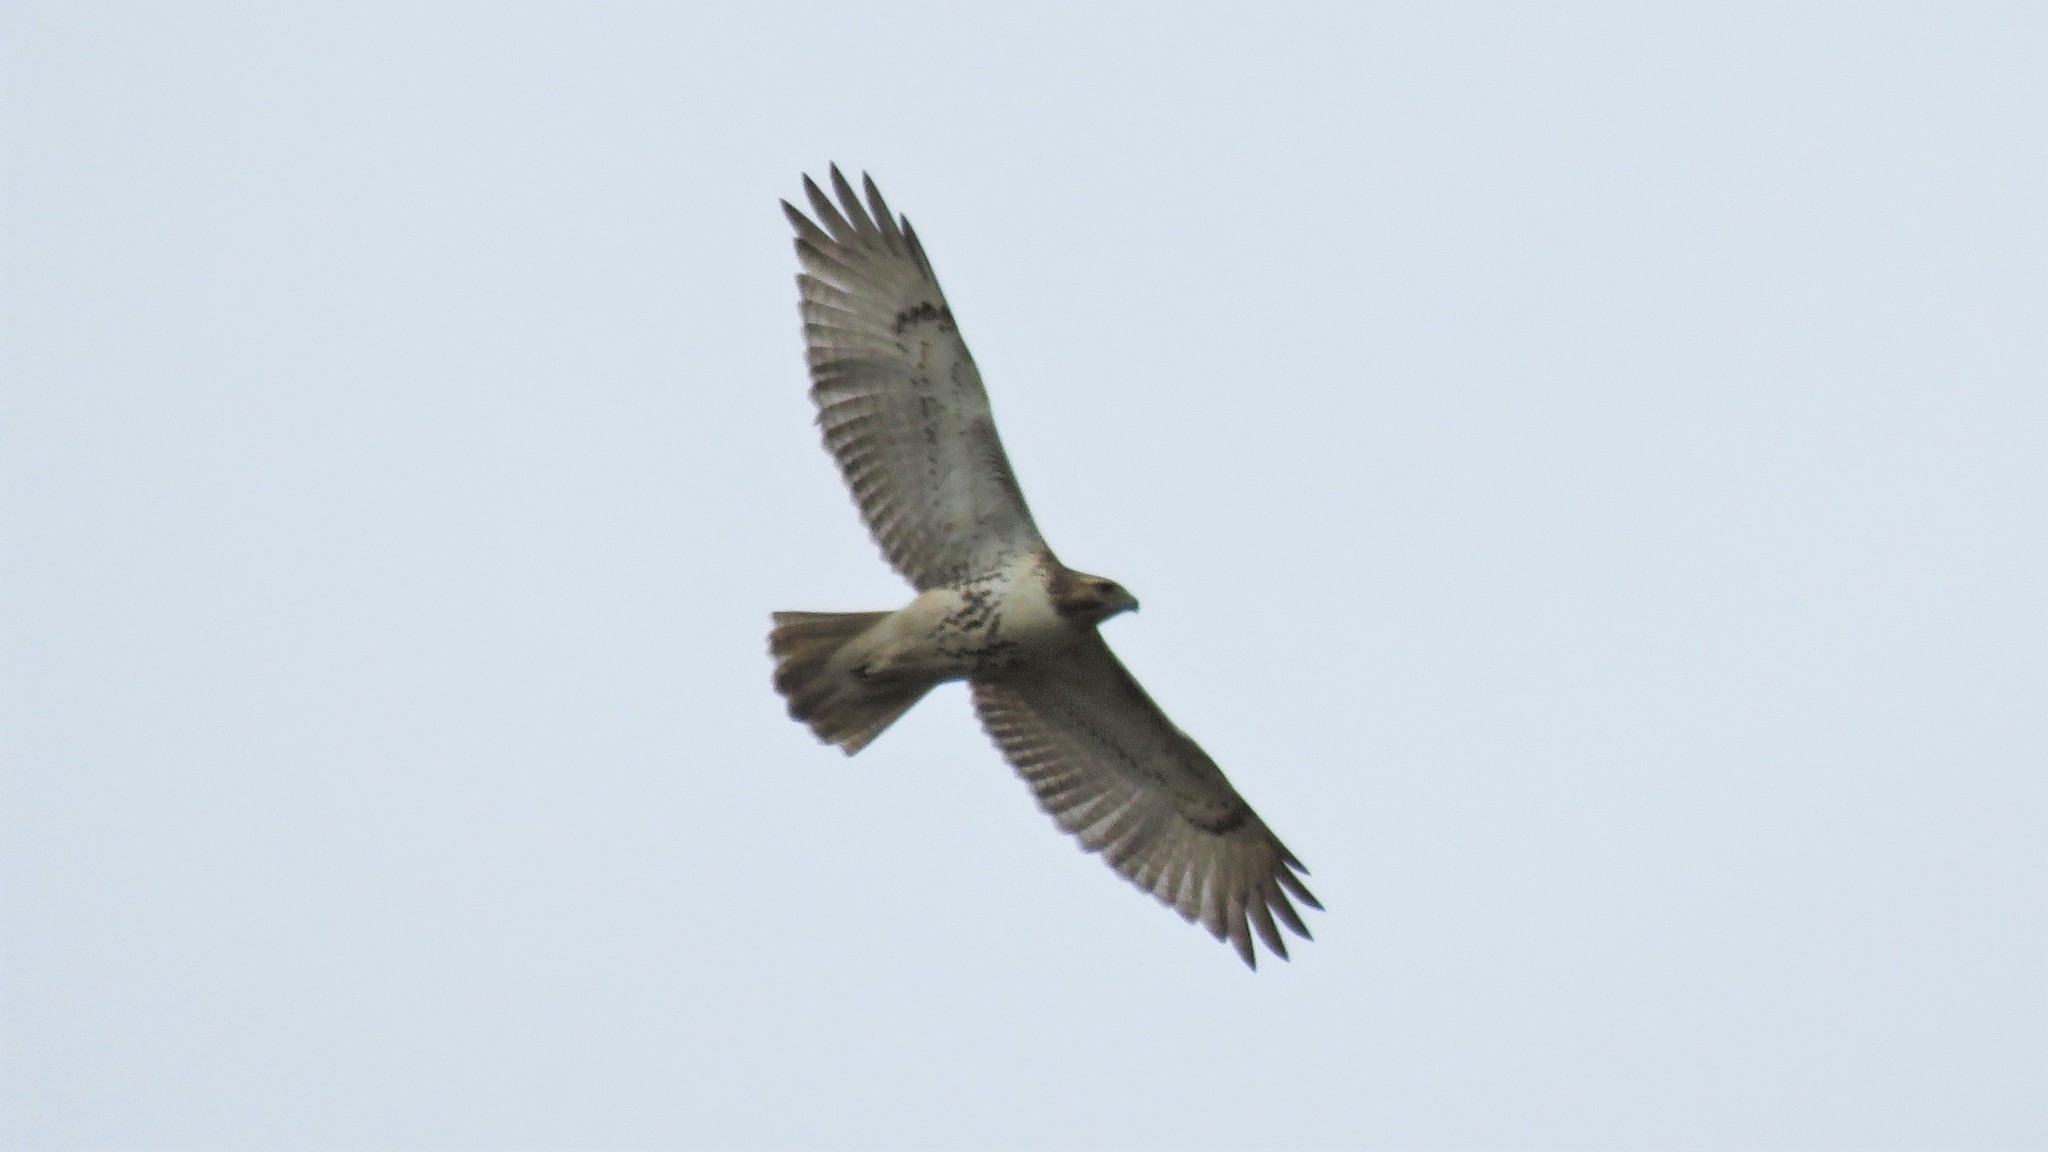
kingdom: Animalia
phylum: Chordata
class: Aves
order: Accipitriformes
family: Accipitridae
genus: Buteo
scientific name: Buteo jamaicensis
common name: Red-tailed hawk
